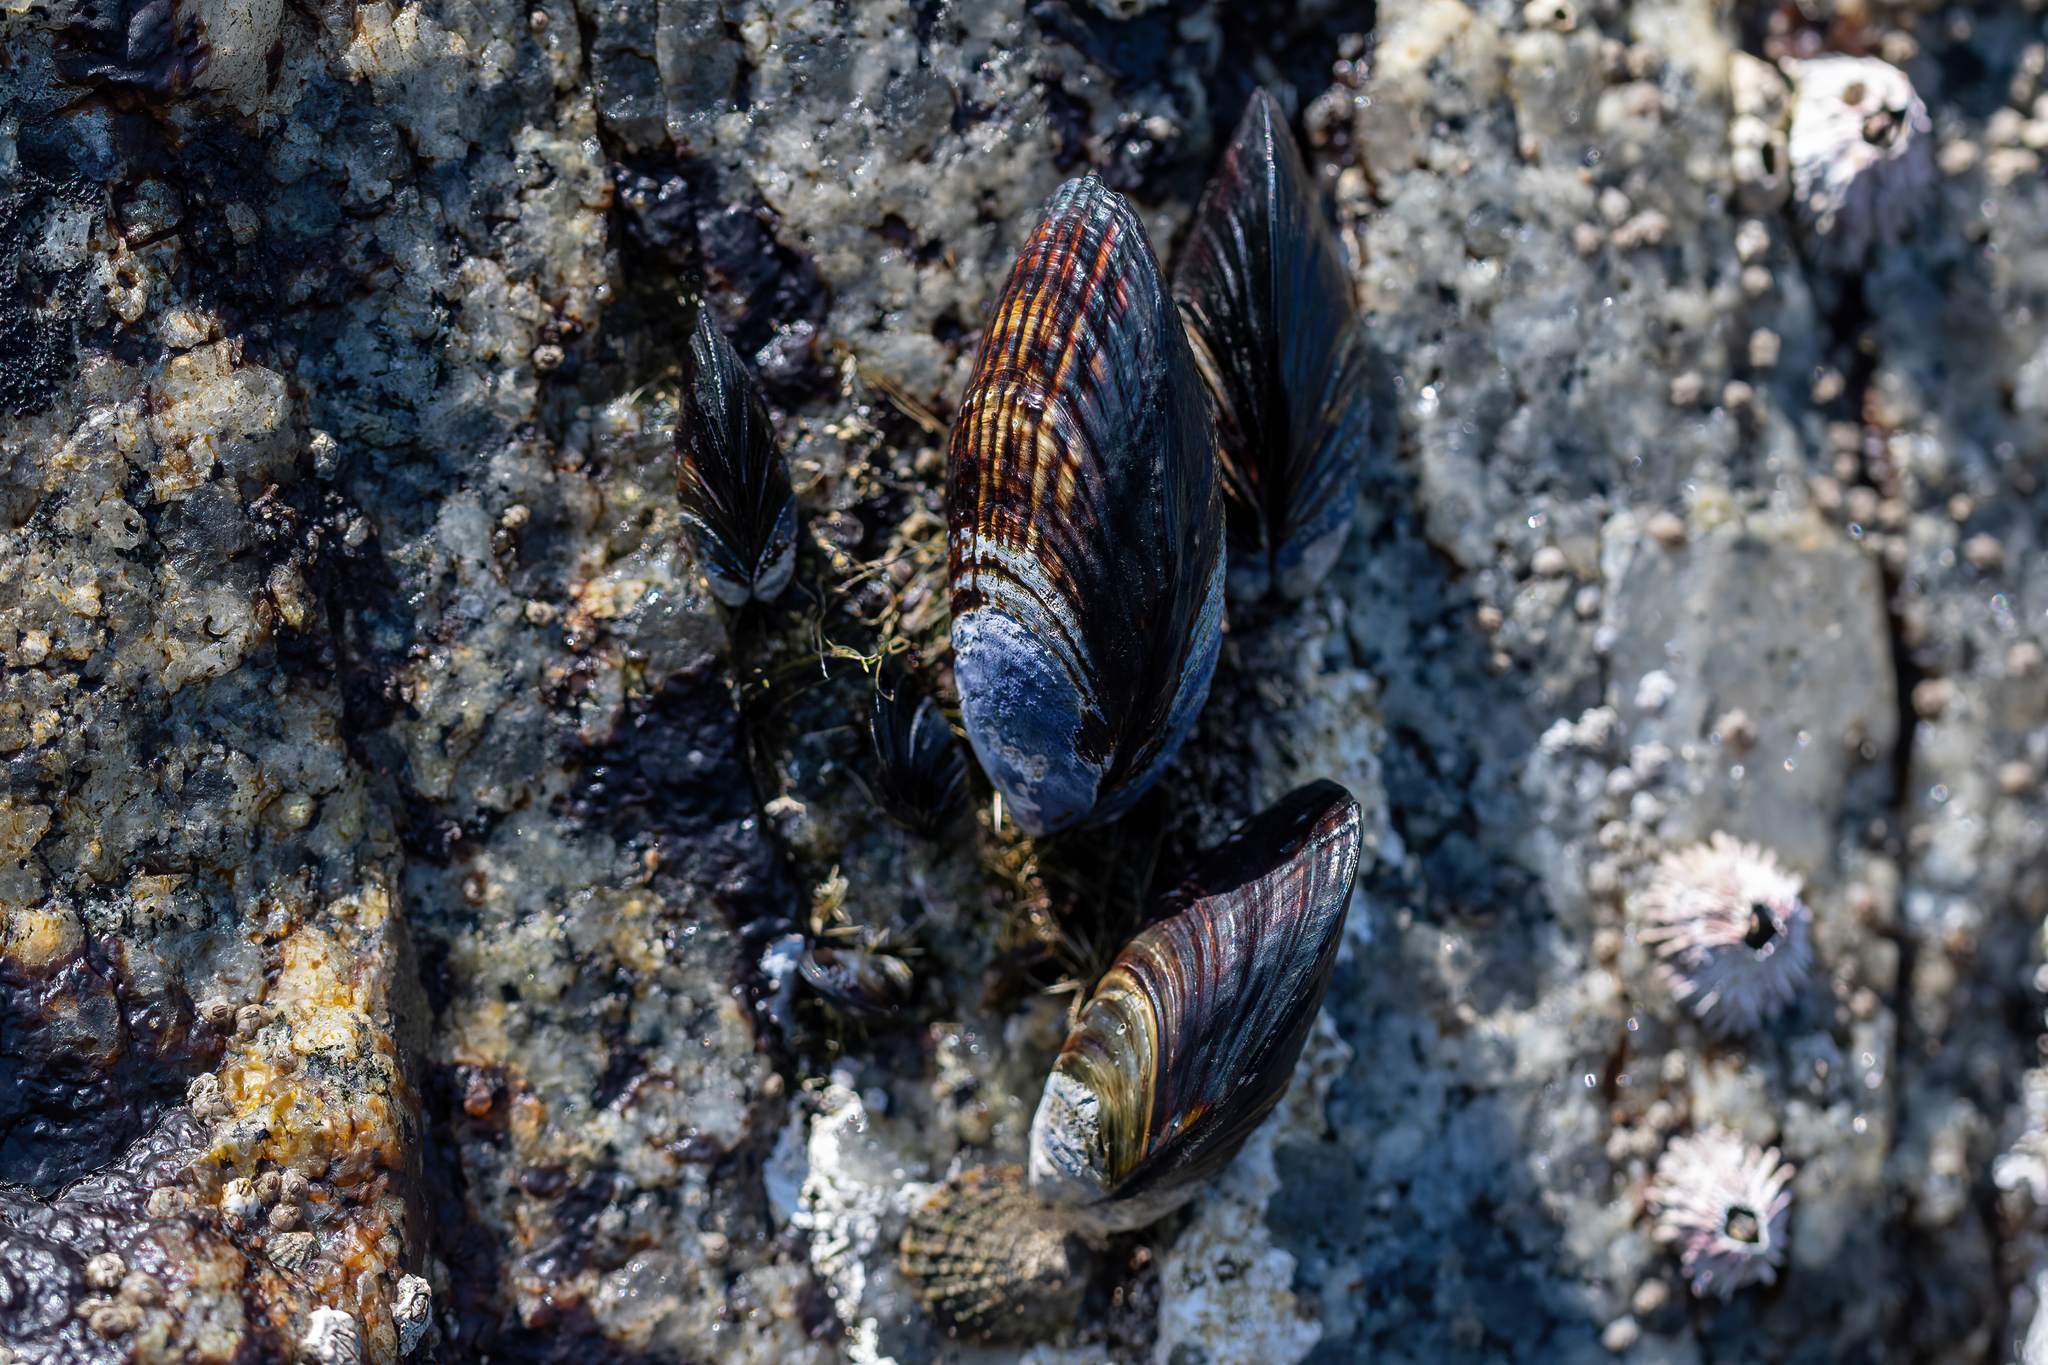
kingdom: Animalia
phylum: Mollusca
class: Bivalvia
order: Mytilida
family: Mytilidae
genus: Mytilus
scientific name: Mytilus californianus
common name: California mussel
